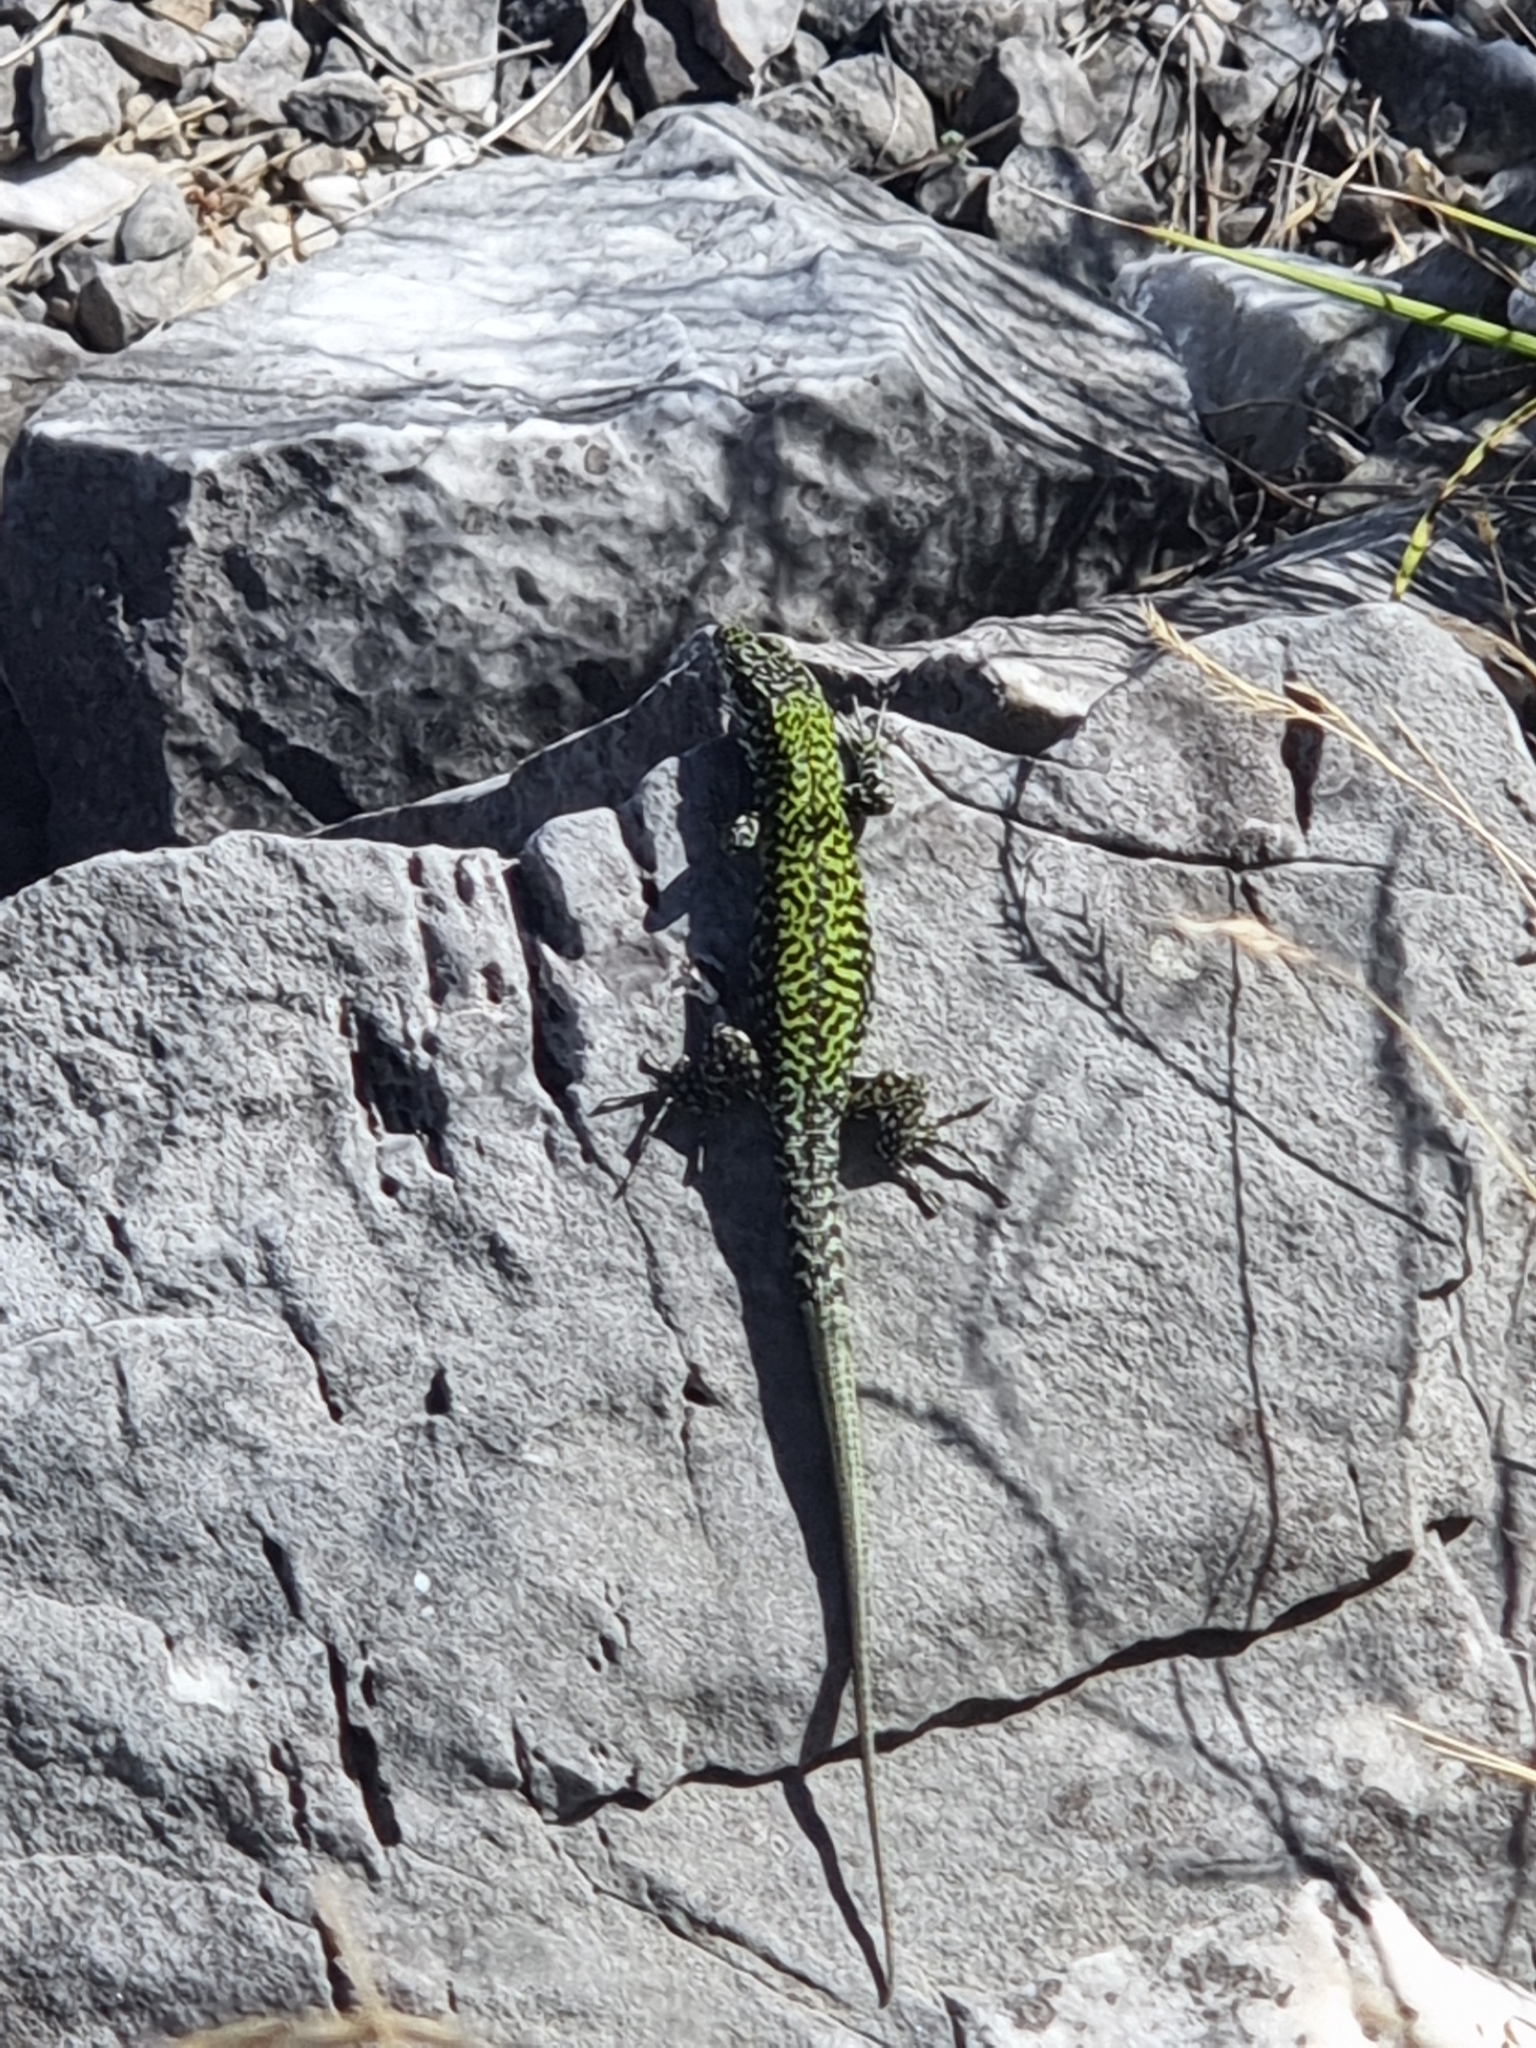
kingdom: Animalia
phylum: Chordata
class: Squamata
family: Lacertidae
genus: Podarcis
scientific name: Podarcis muralis
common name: Common wall lizard
